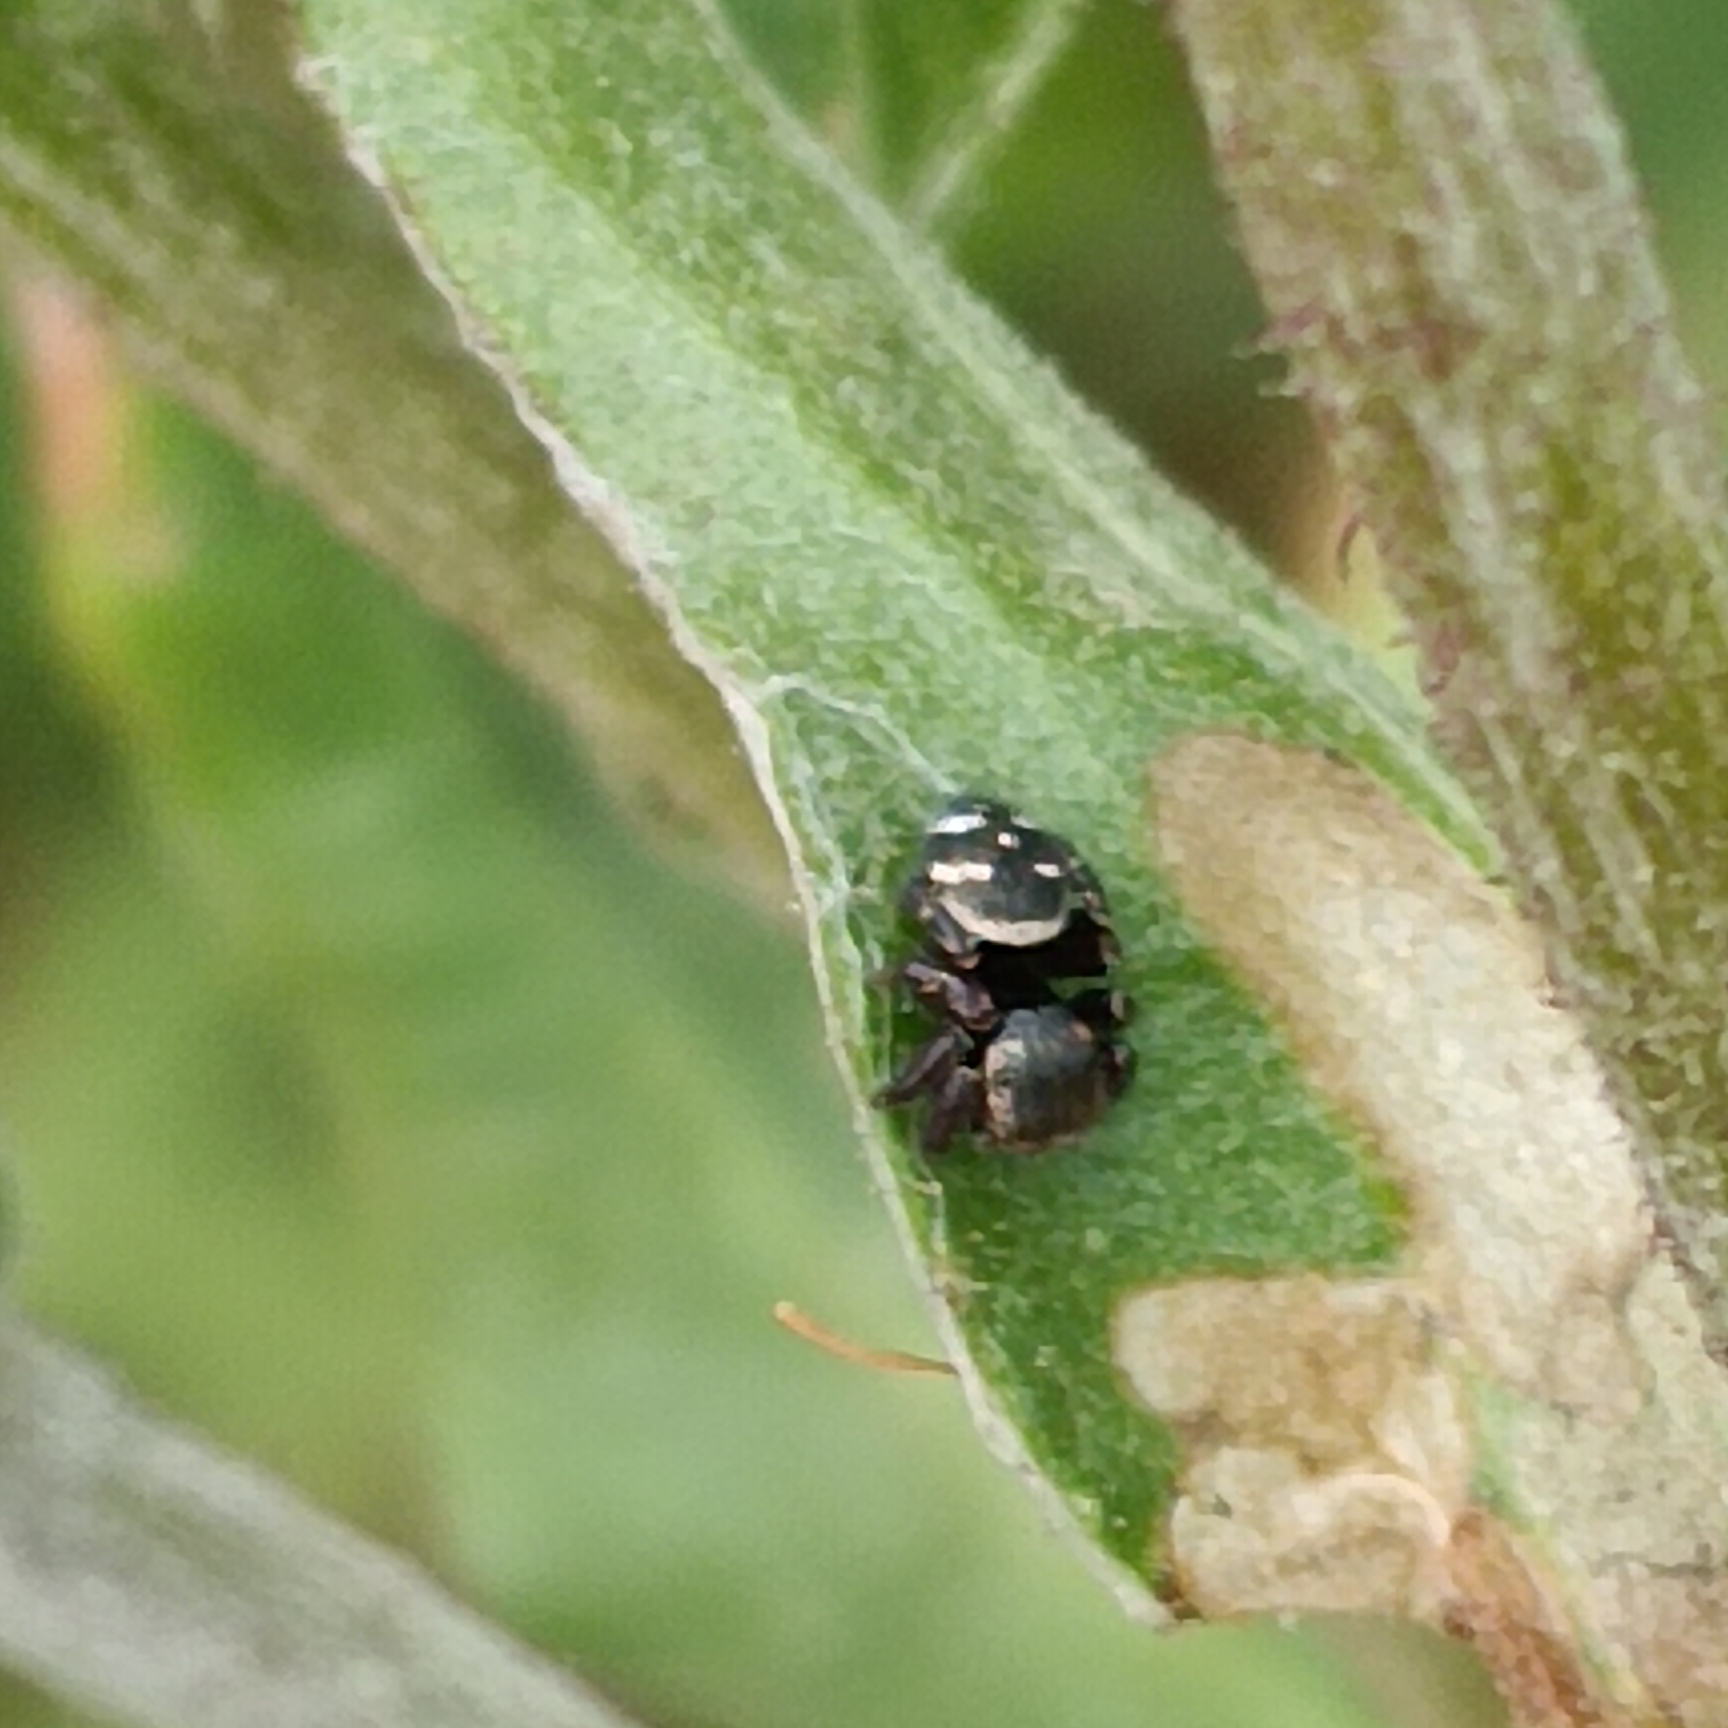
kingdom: Animalia
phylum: Arthropoda
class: Arachnida
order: Araneae
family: Salticidae
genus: Baryphas
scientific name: Baryphas ahenus
